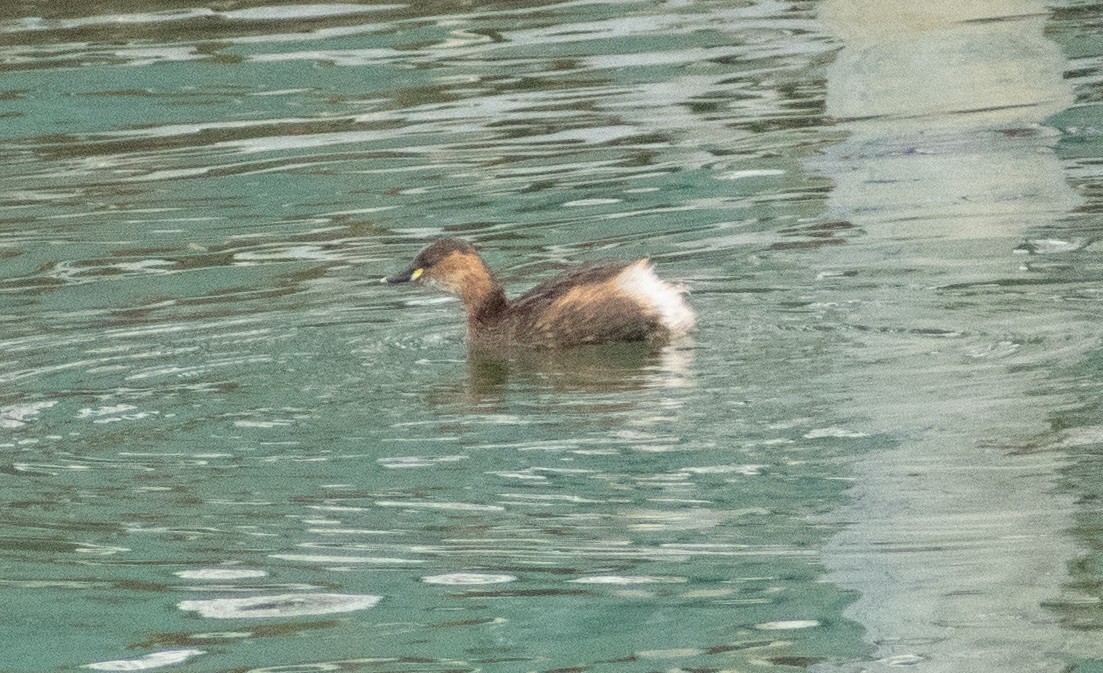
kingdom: Animalia
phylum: Chordata
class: Aves
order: Podicipediformes
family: Podicipedidae
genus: Tachybaptus
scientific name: Tachybaptus ruficollis
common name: Little grebe
